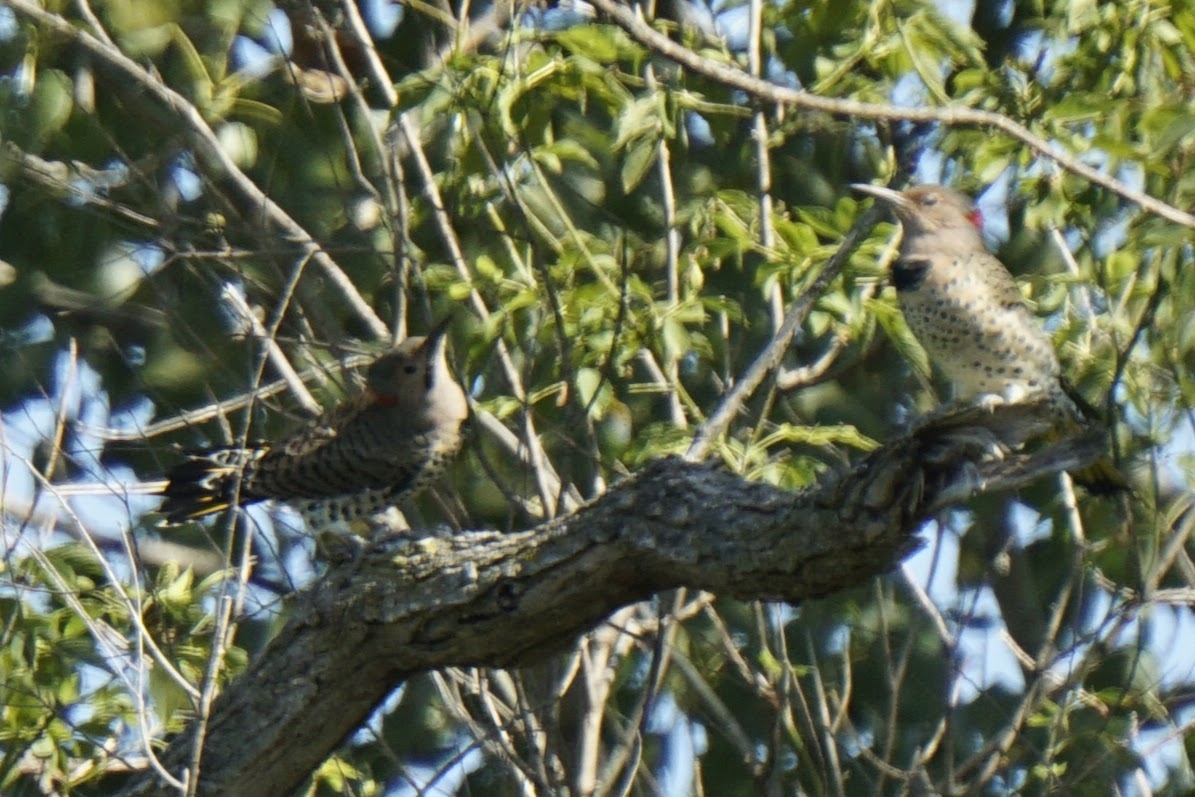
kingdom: Animalia
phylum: Chordata
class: Aves
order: Piciformes
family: Picidae
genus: Colaptes
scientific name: Colaptes auratus
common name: Northern flicker
